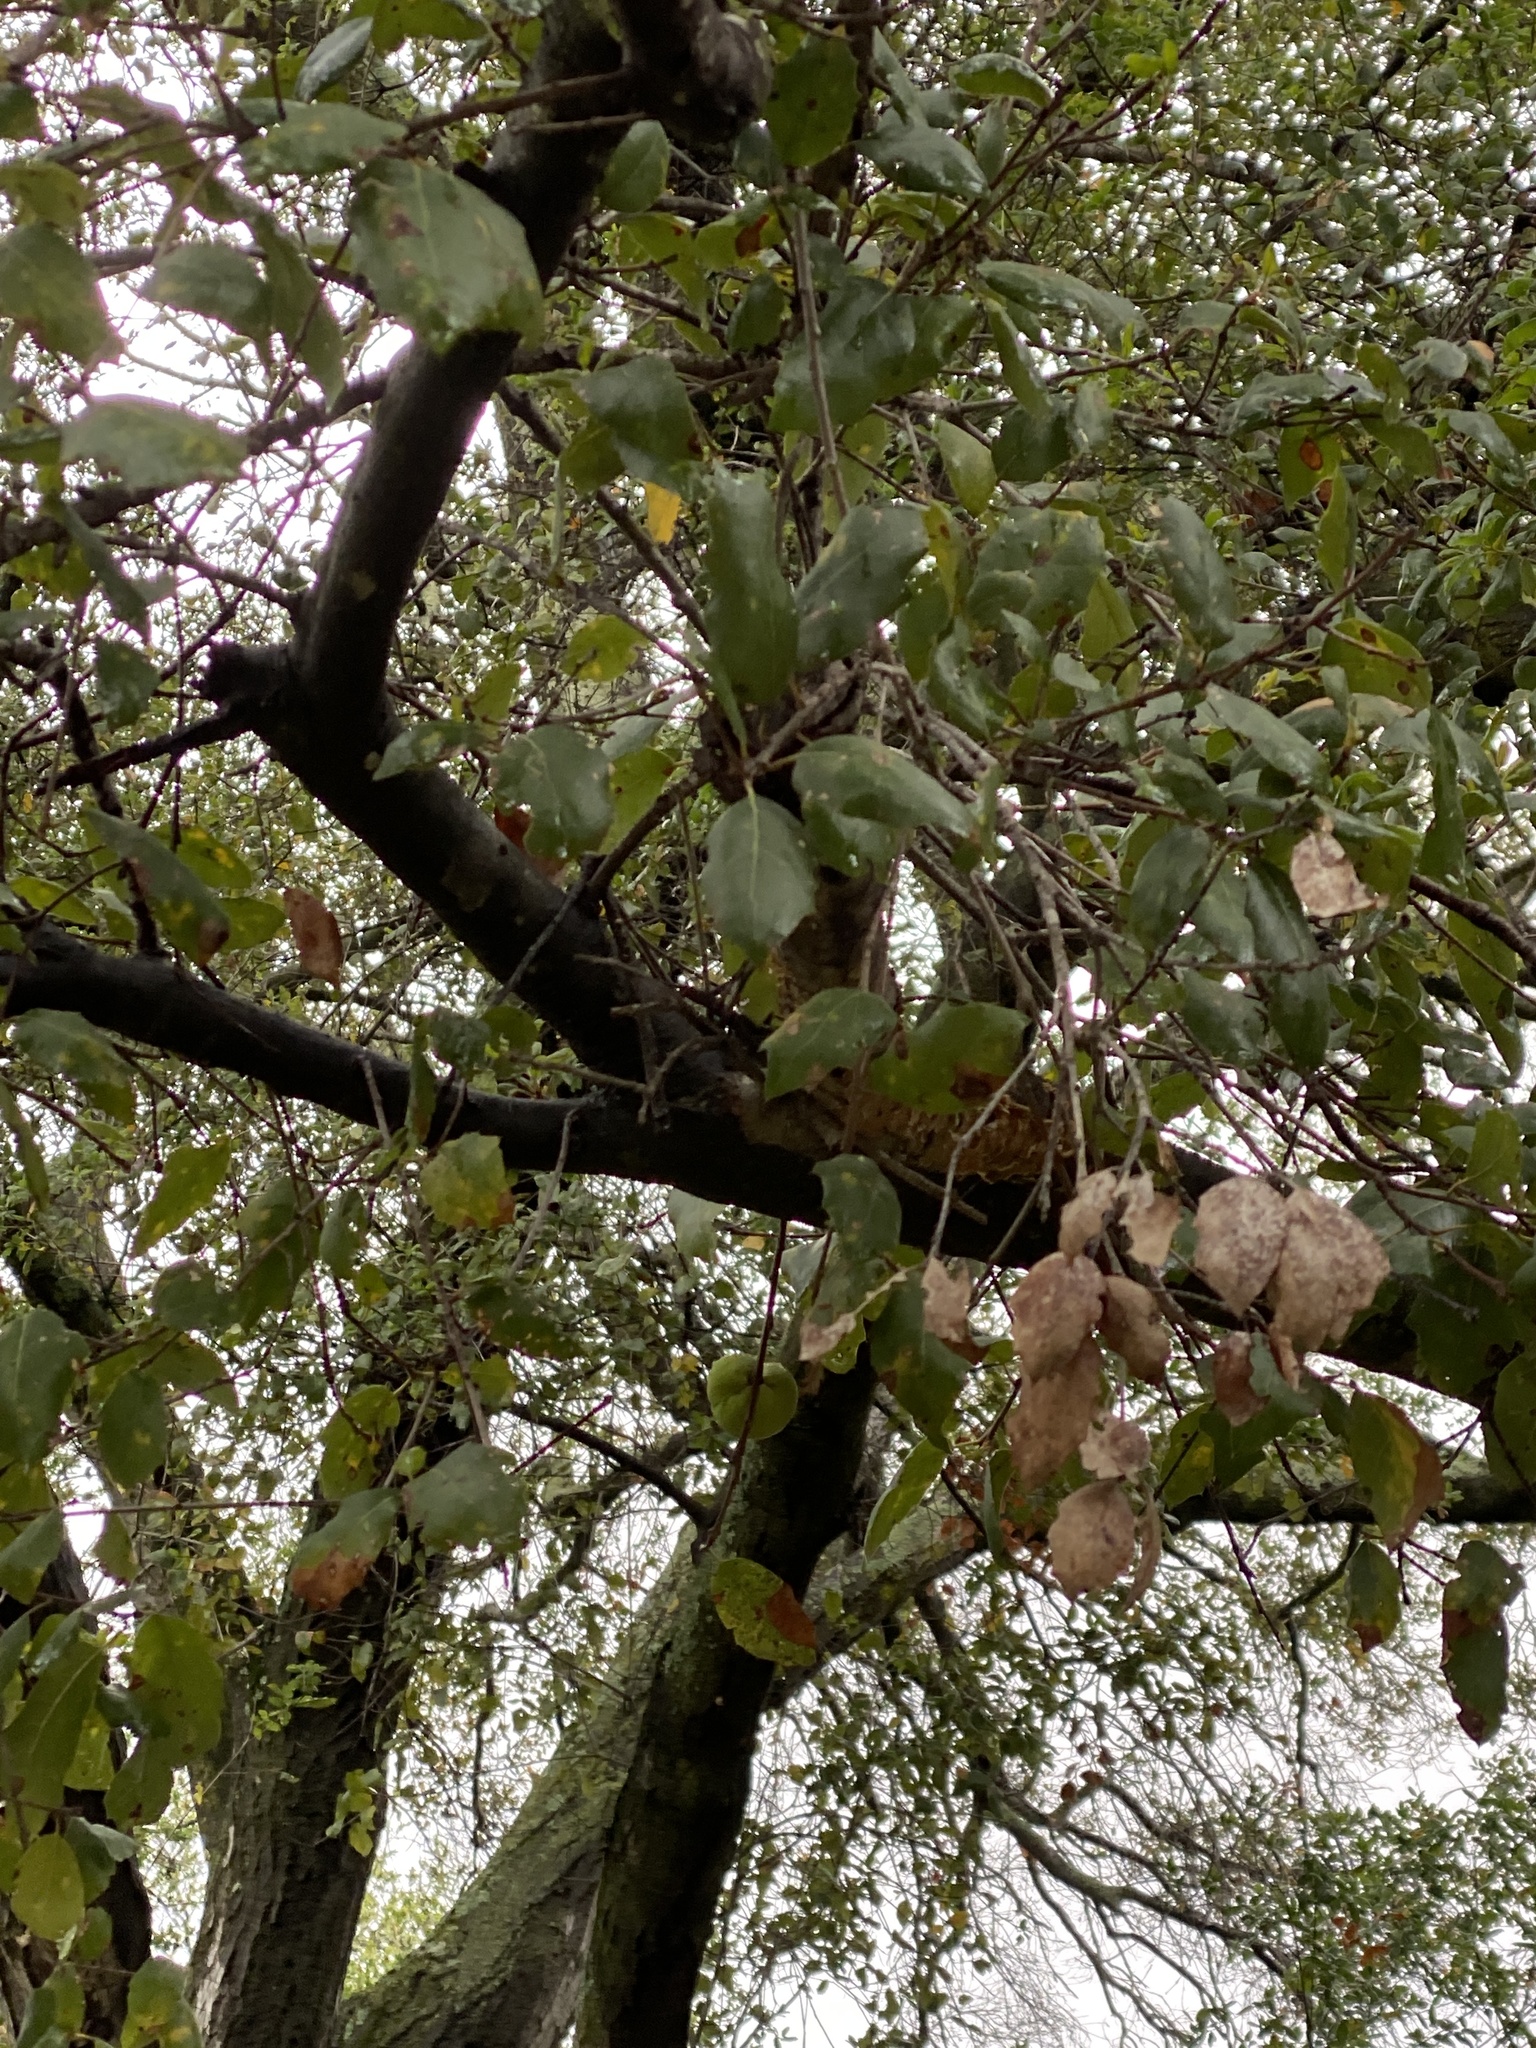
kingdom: Plantae
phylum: Tracheophyta
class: Magnoliopsida
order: Fagales
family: Fagaceae
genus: Quercus
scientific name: Quercus agrifolia
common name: California live oak
